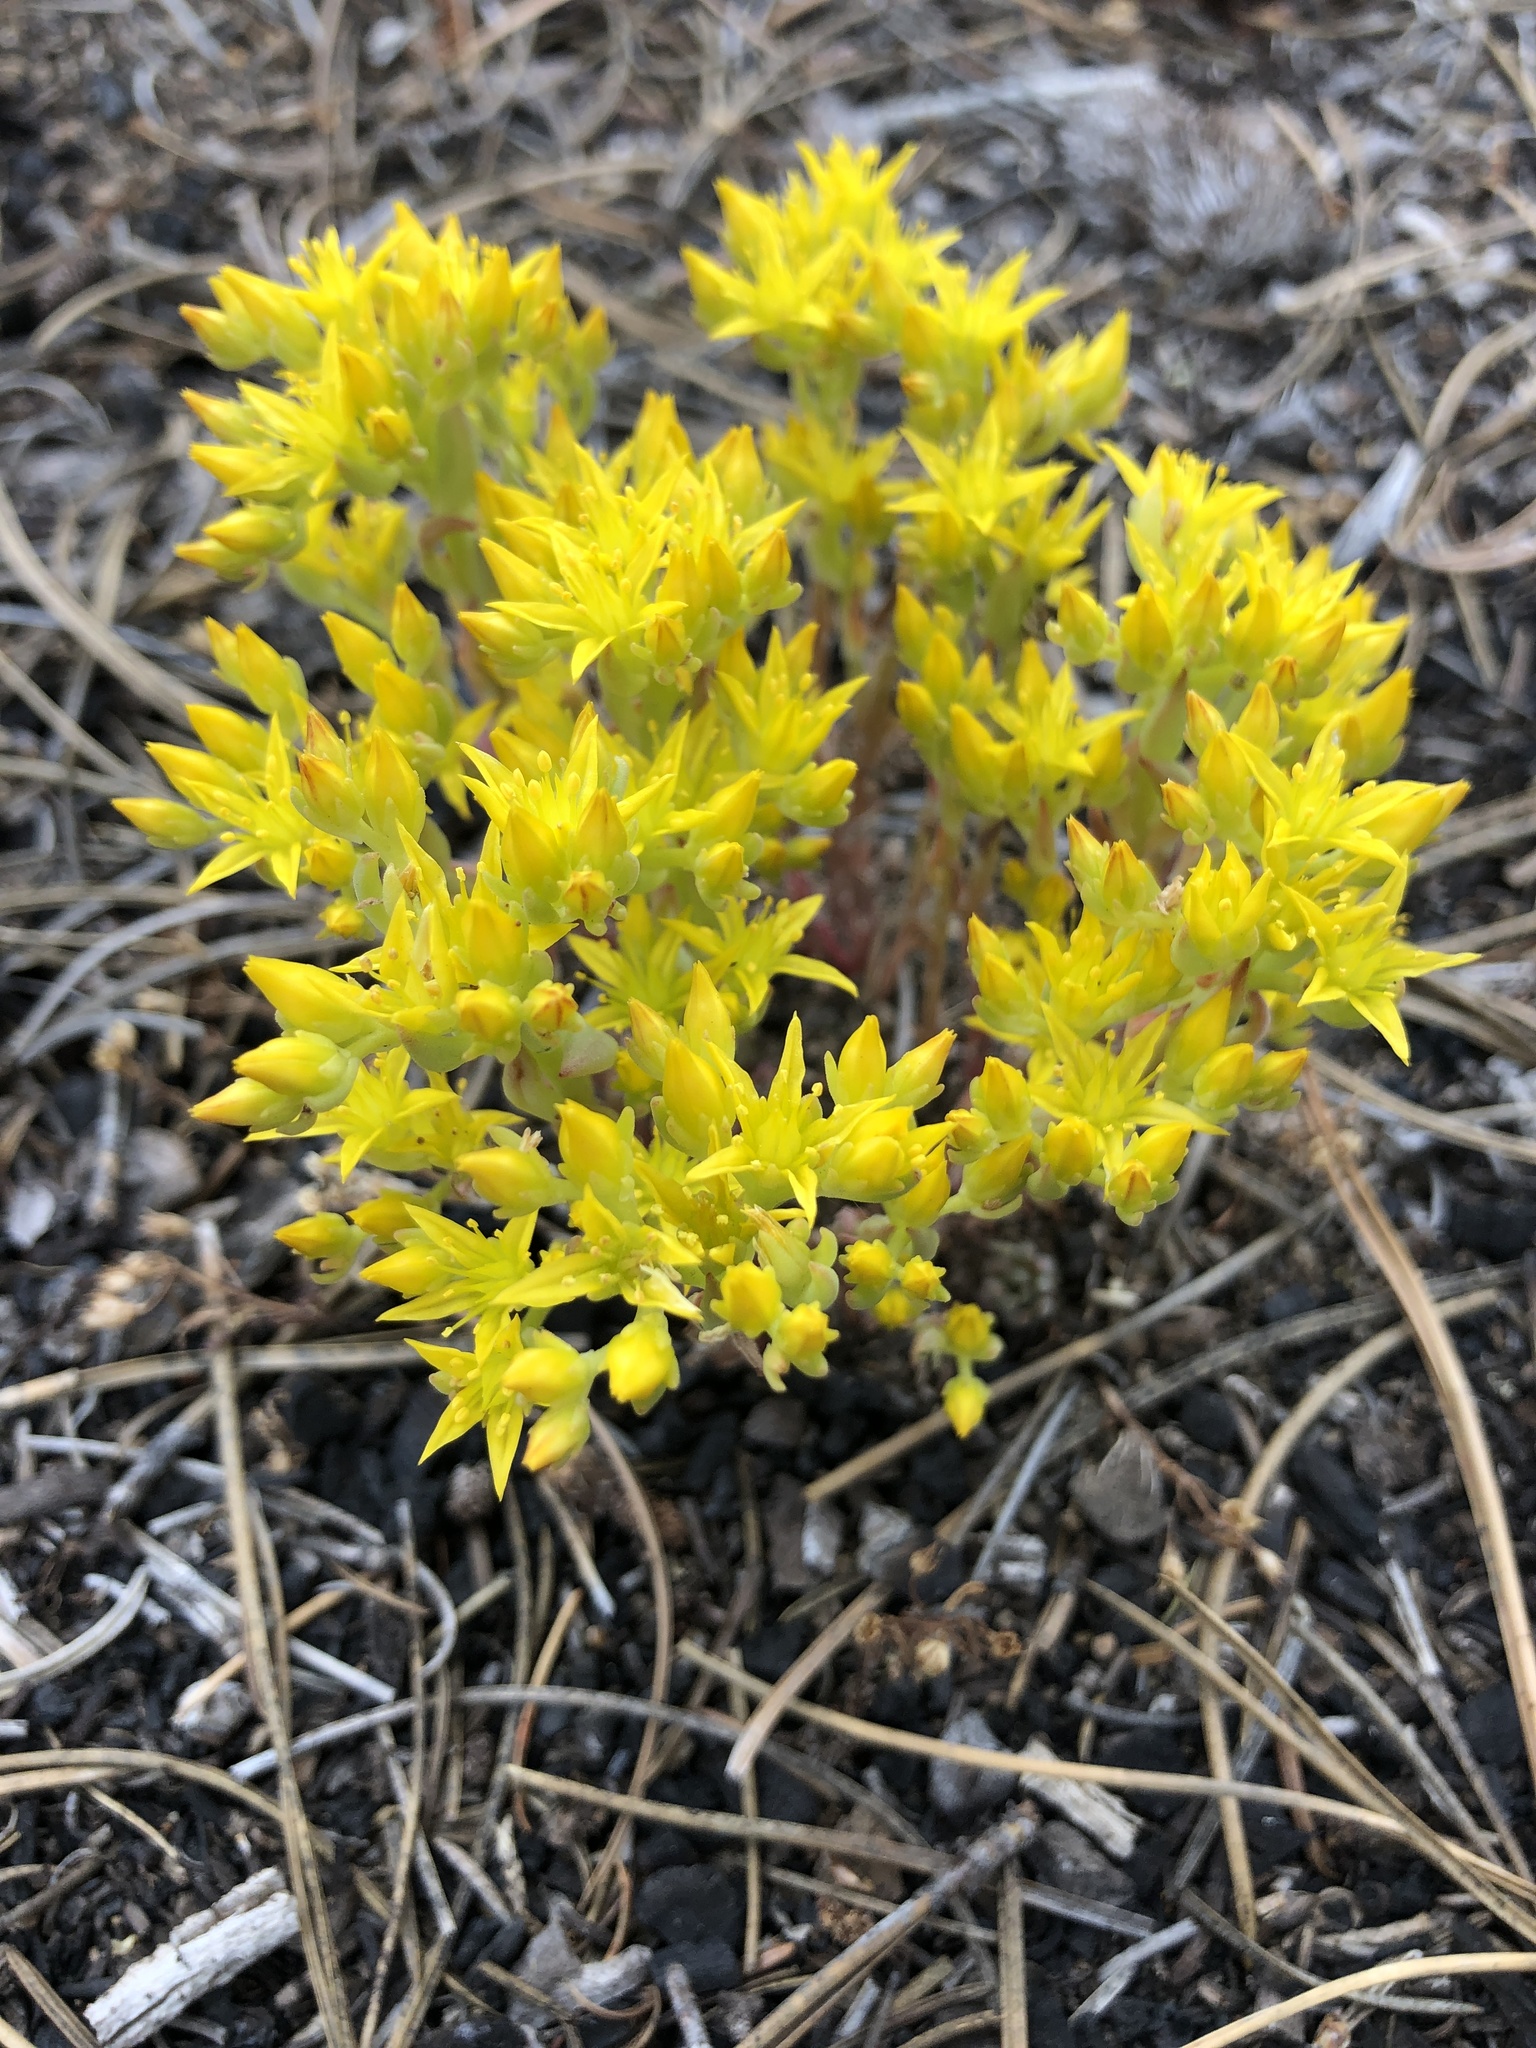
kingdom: Plantae
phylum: Tracheophyta
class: Magnoliopsida
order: Saxifragales
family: Crassulaceae
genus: Sedum
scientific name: Sedum lanceolatum
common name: Common stonecrop
